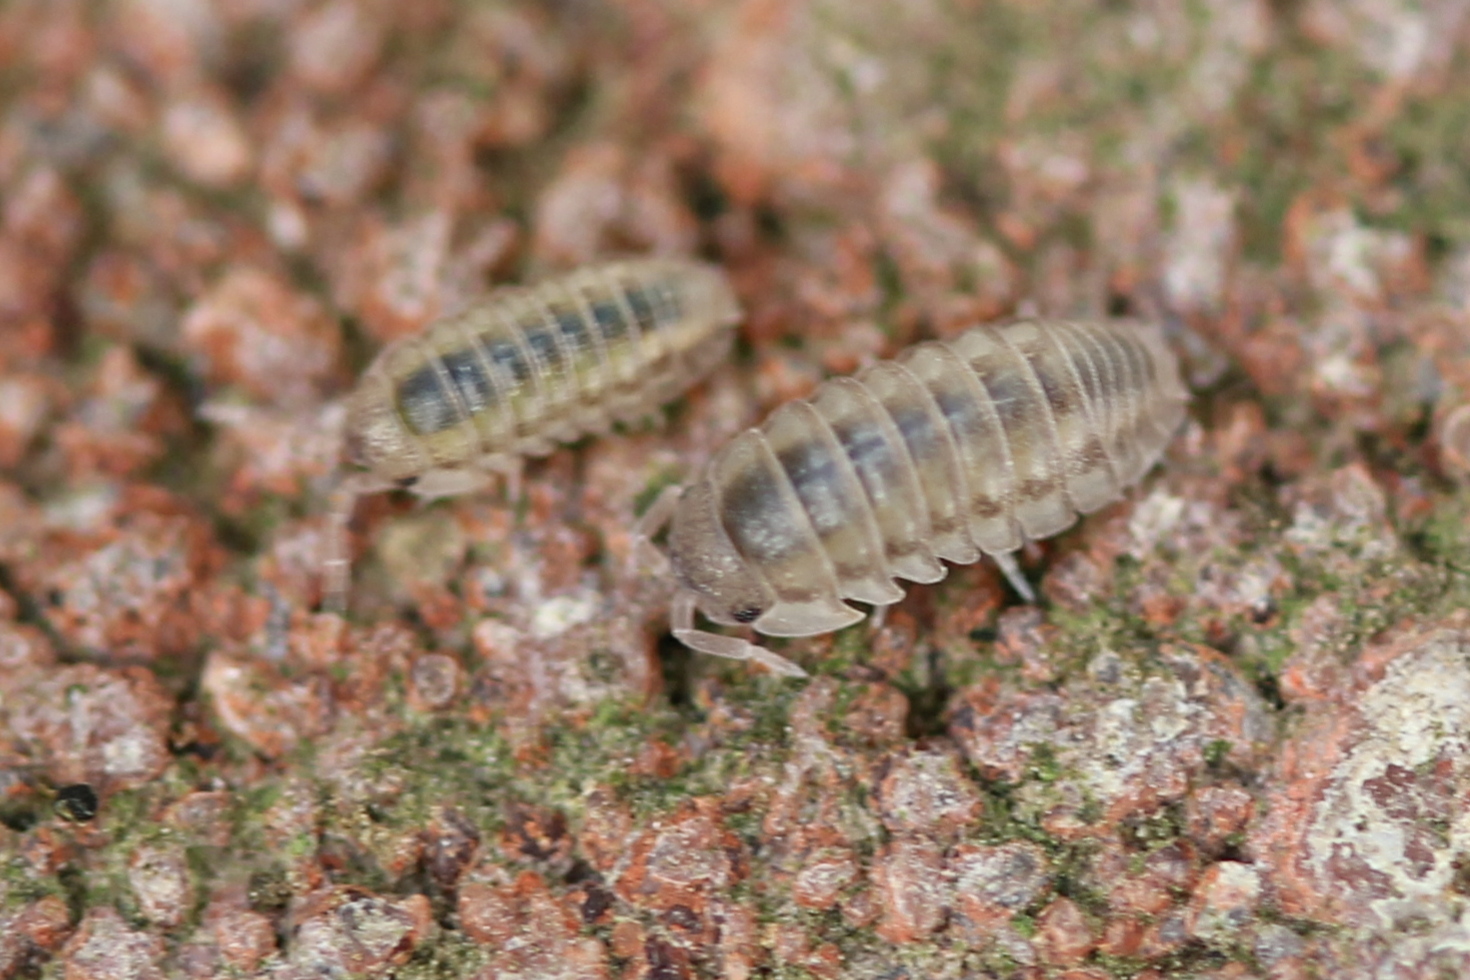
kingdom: Animalia
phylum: Arthropoda
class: Malacostraca
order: Isopoda
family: Armadillidiidae
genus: Armadillidium
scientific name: Armadillidium nasatum
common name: Isopod
